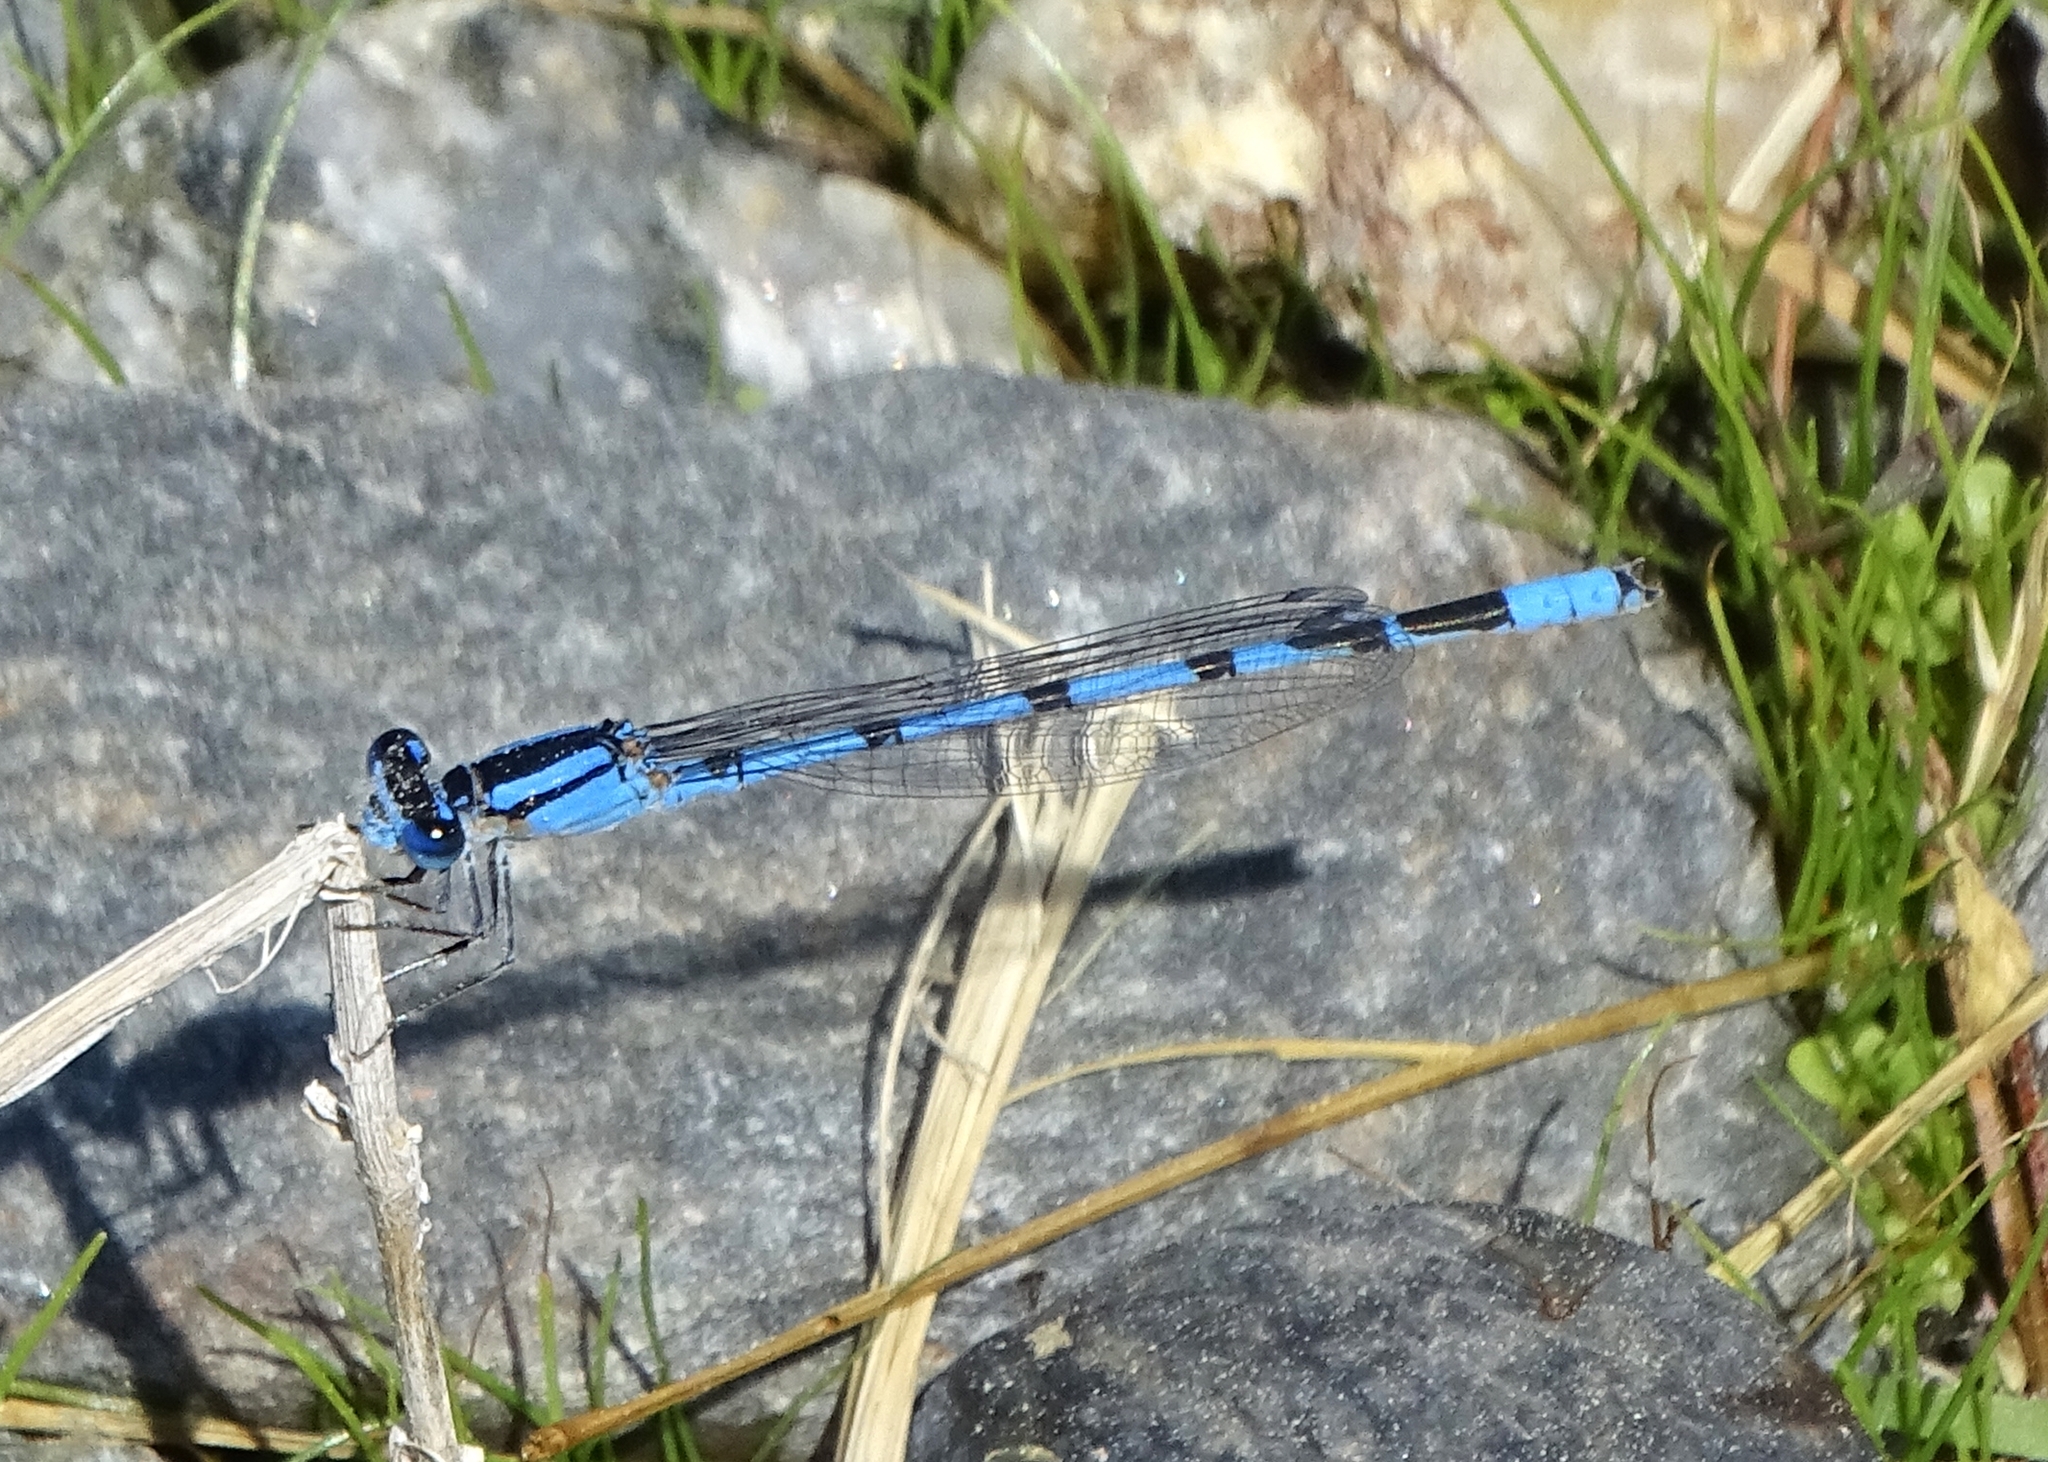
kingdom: Animalia
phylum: Arthropoda
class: Insecta
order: Odonata
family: Coenagrionidae
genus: Enallagma
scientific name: Enallagma civile
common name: Damselfly
